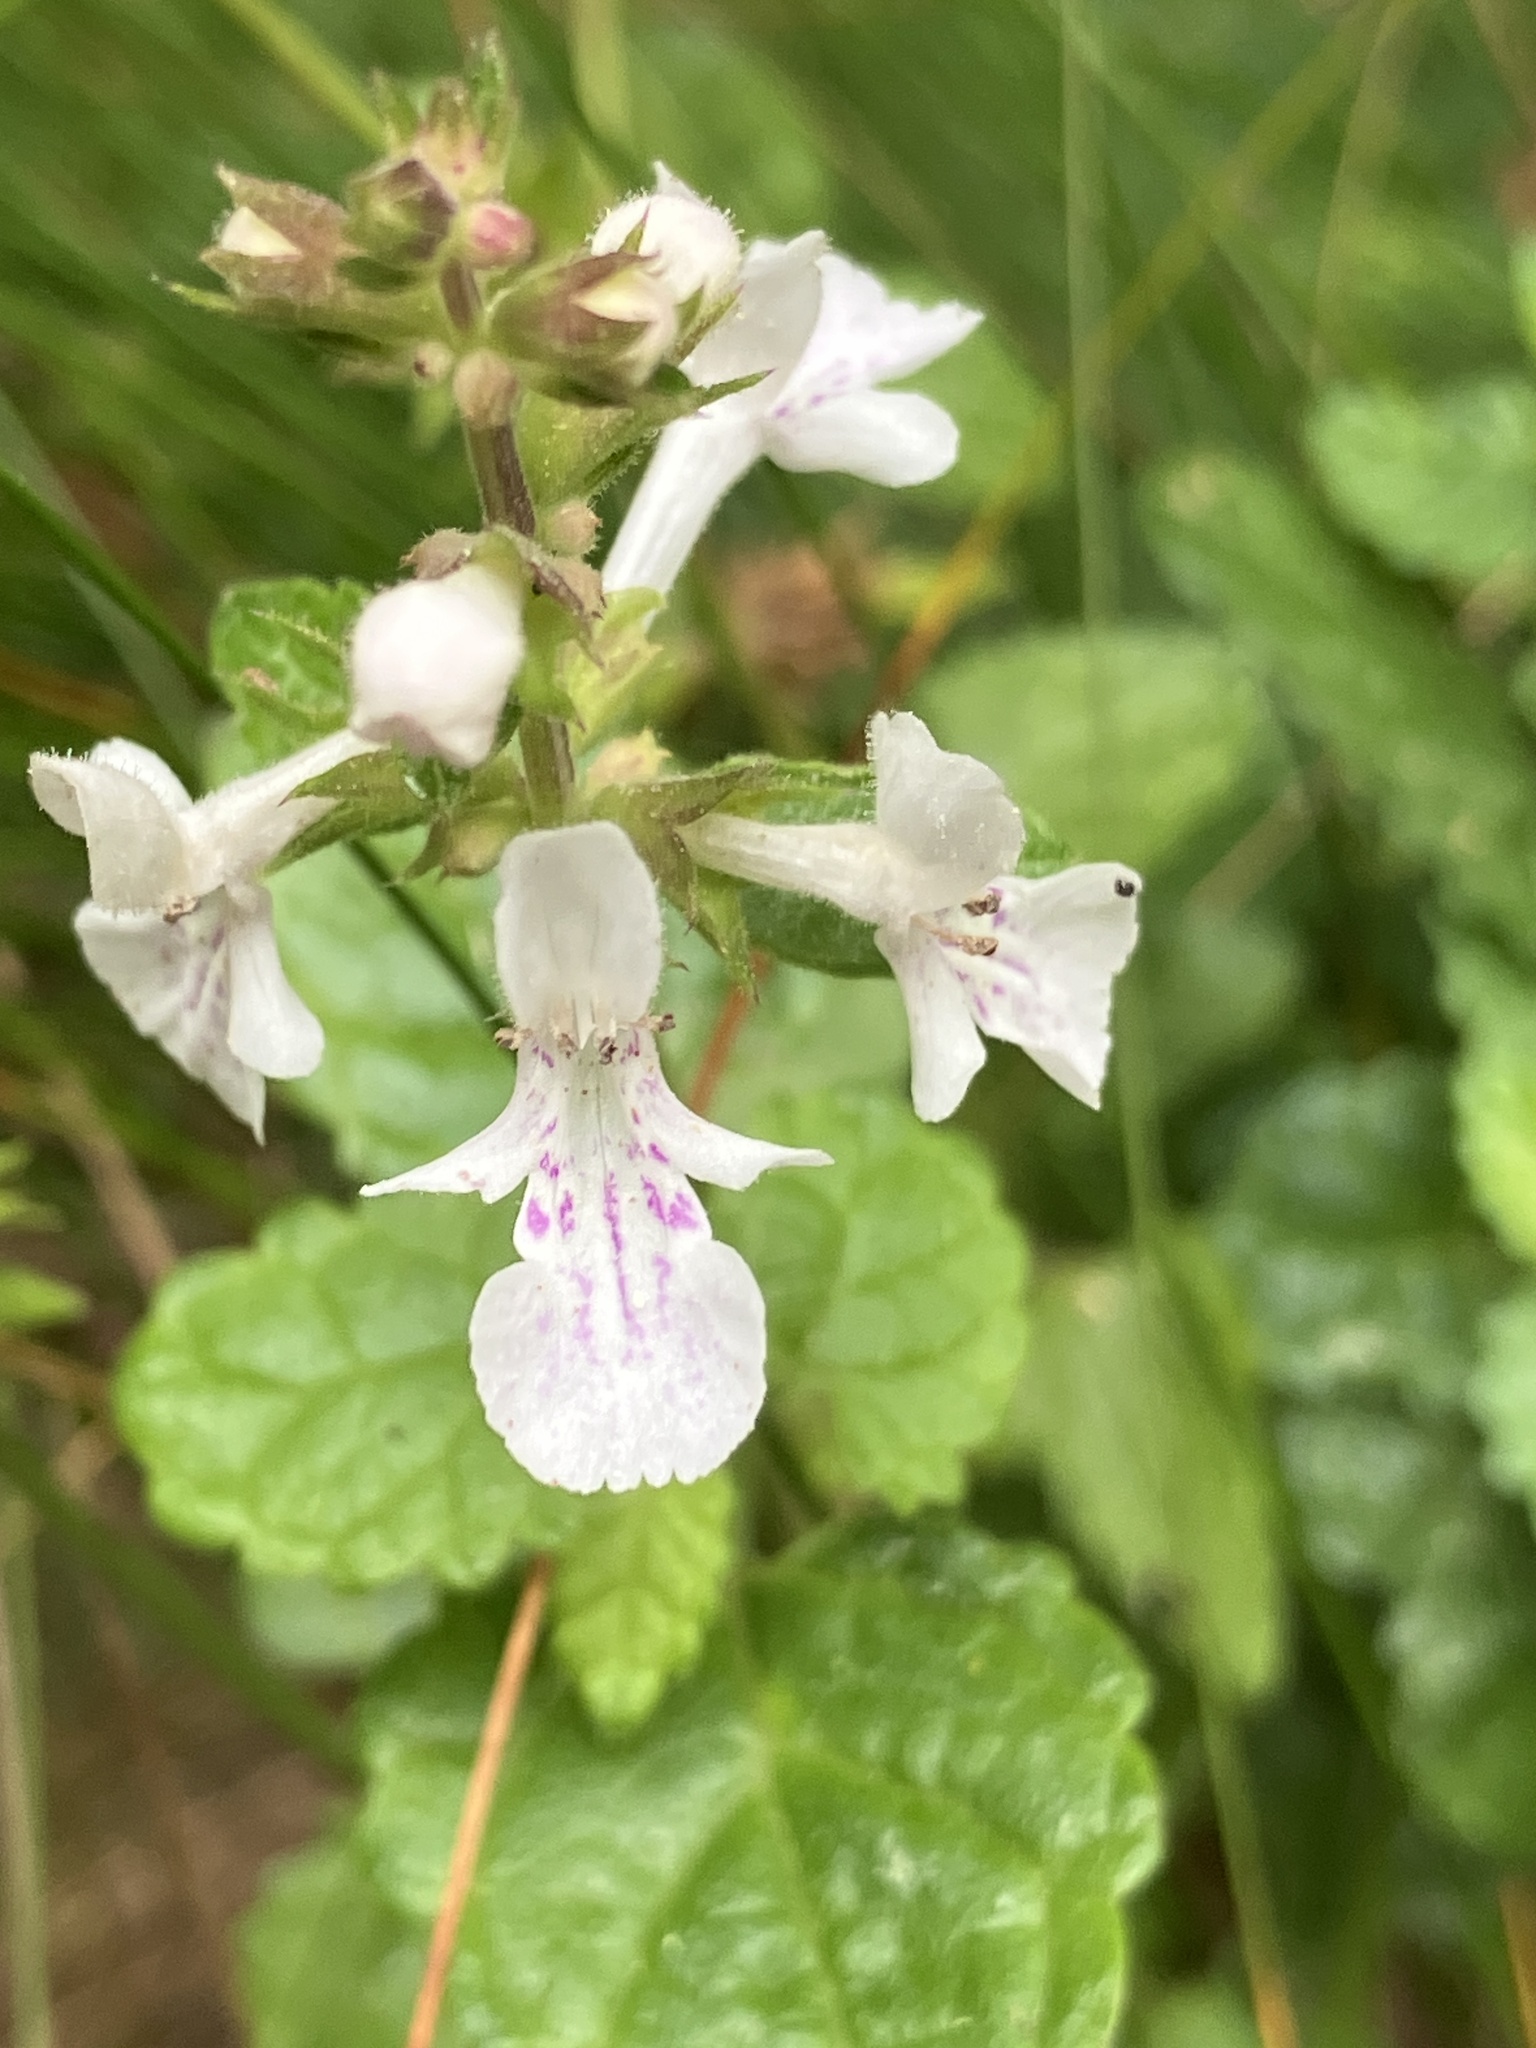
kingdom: Plantae
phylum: Tracheophyta
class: Magnoliopsida
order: Lamiales
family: Lamiaceae
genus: Stachys
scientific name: Stachys aethiopica
